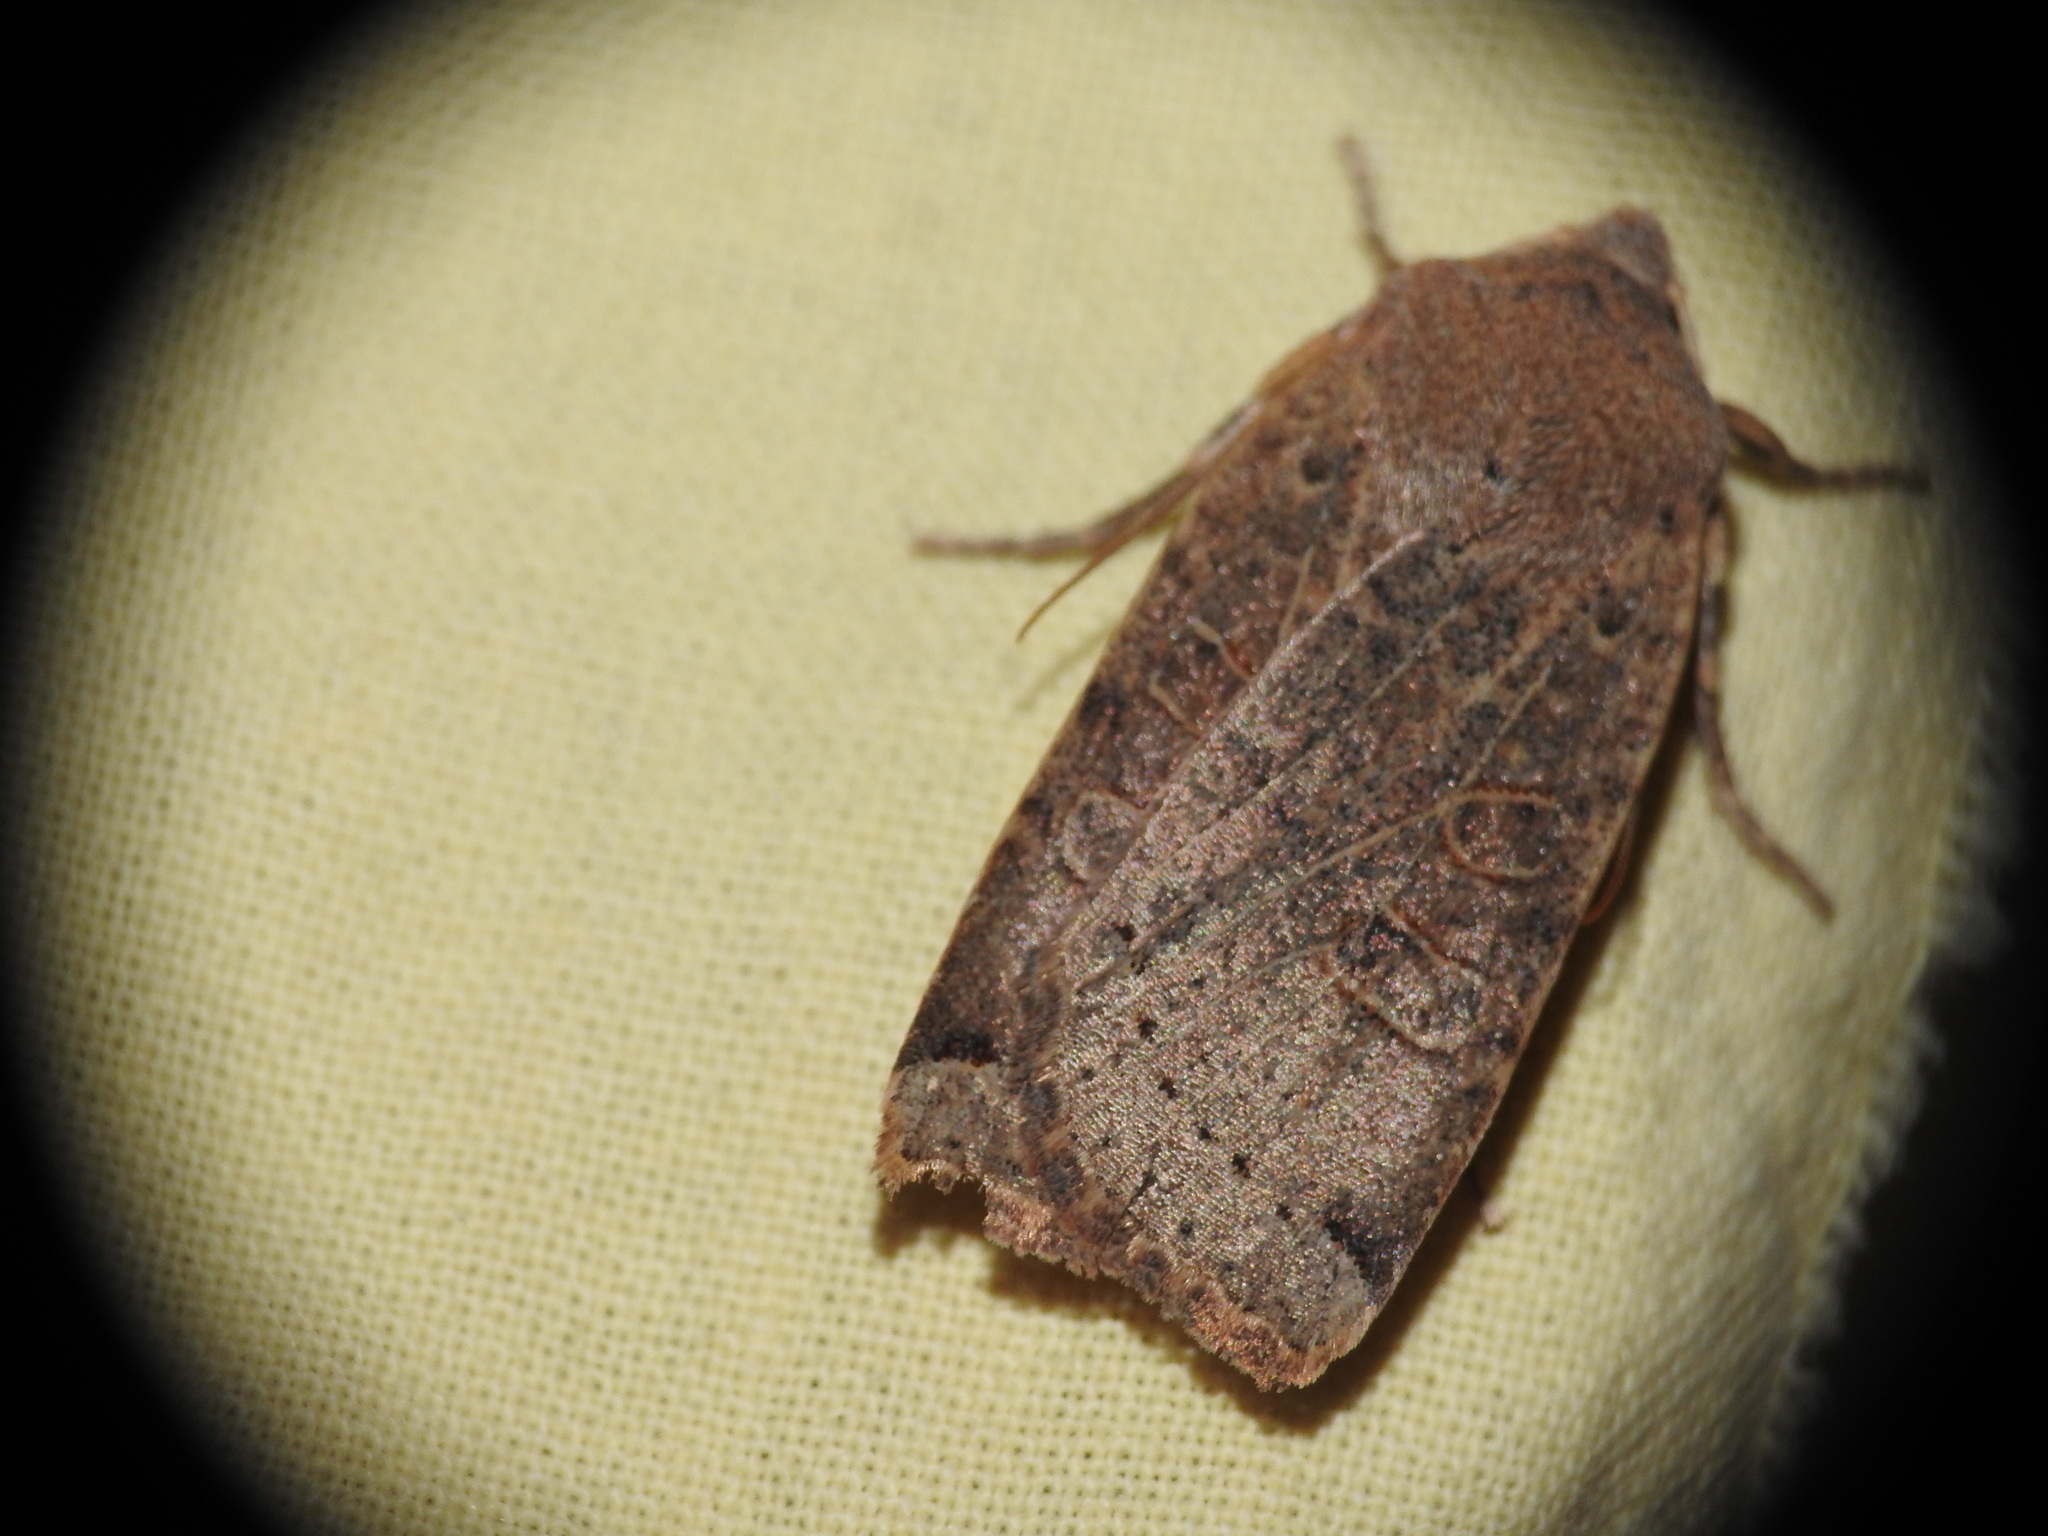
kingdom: Animalia
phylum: Arthropoda
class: Insecta
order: Lepidoptera
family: Noctuidae
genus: Conistra
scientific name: Conistra veronicae
